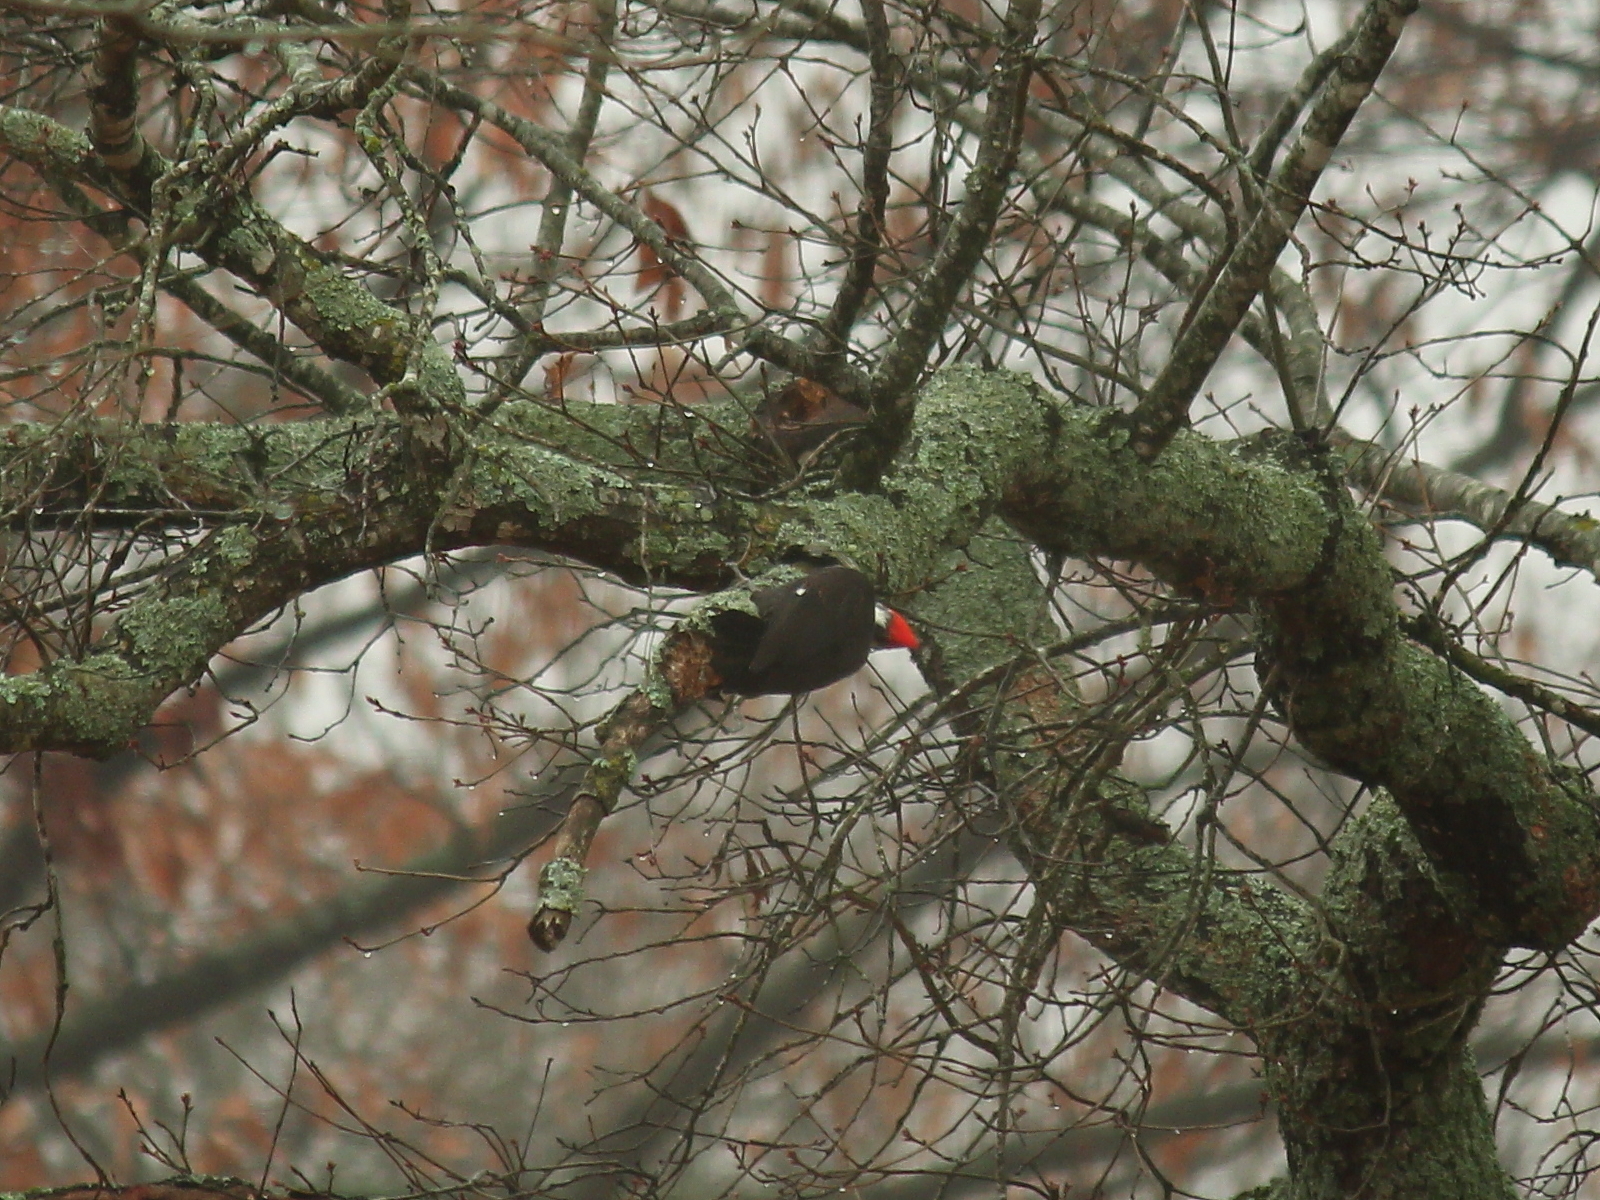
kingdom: Animalia
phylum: Chordata
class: Aves
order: Piciformes
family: Picidae
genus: Dryocopus
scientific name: Dryocopus pileatus
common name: Pileated woodpecker
